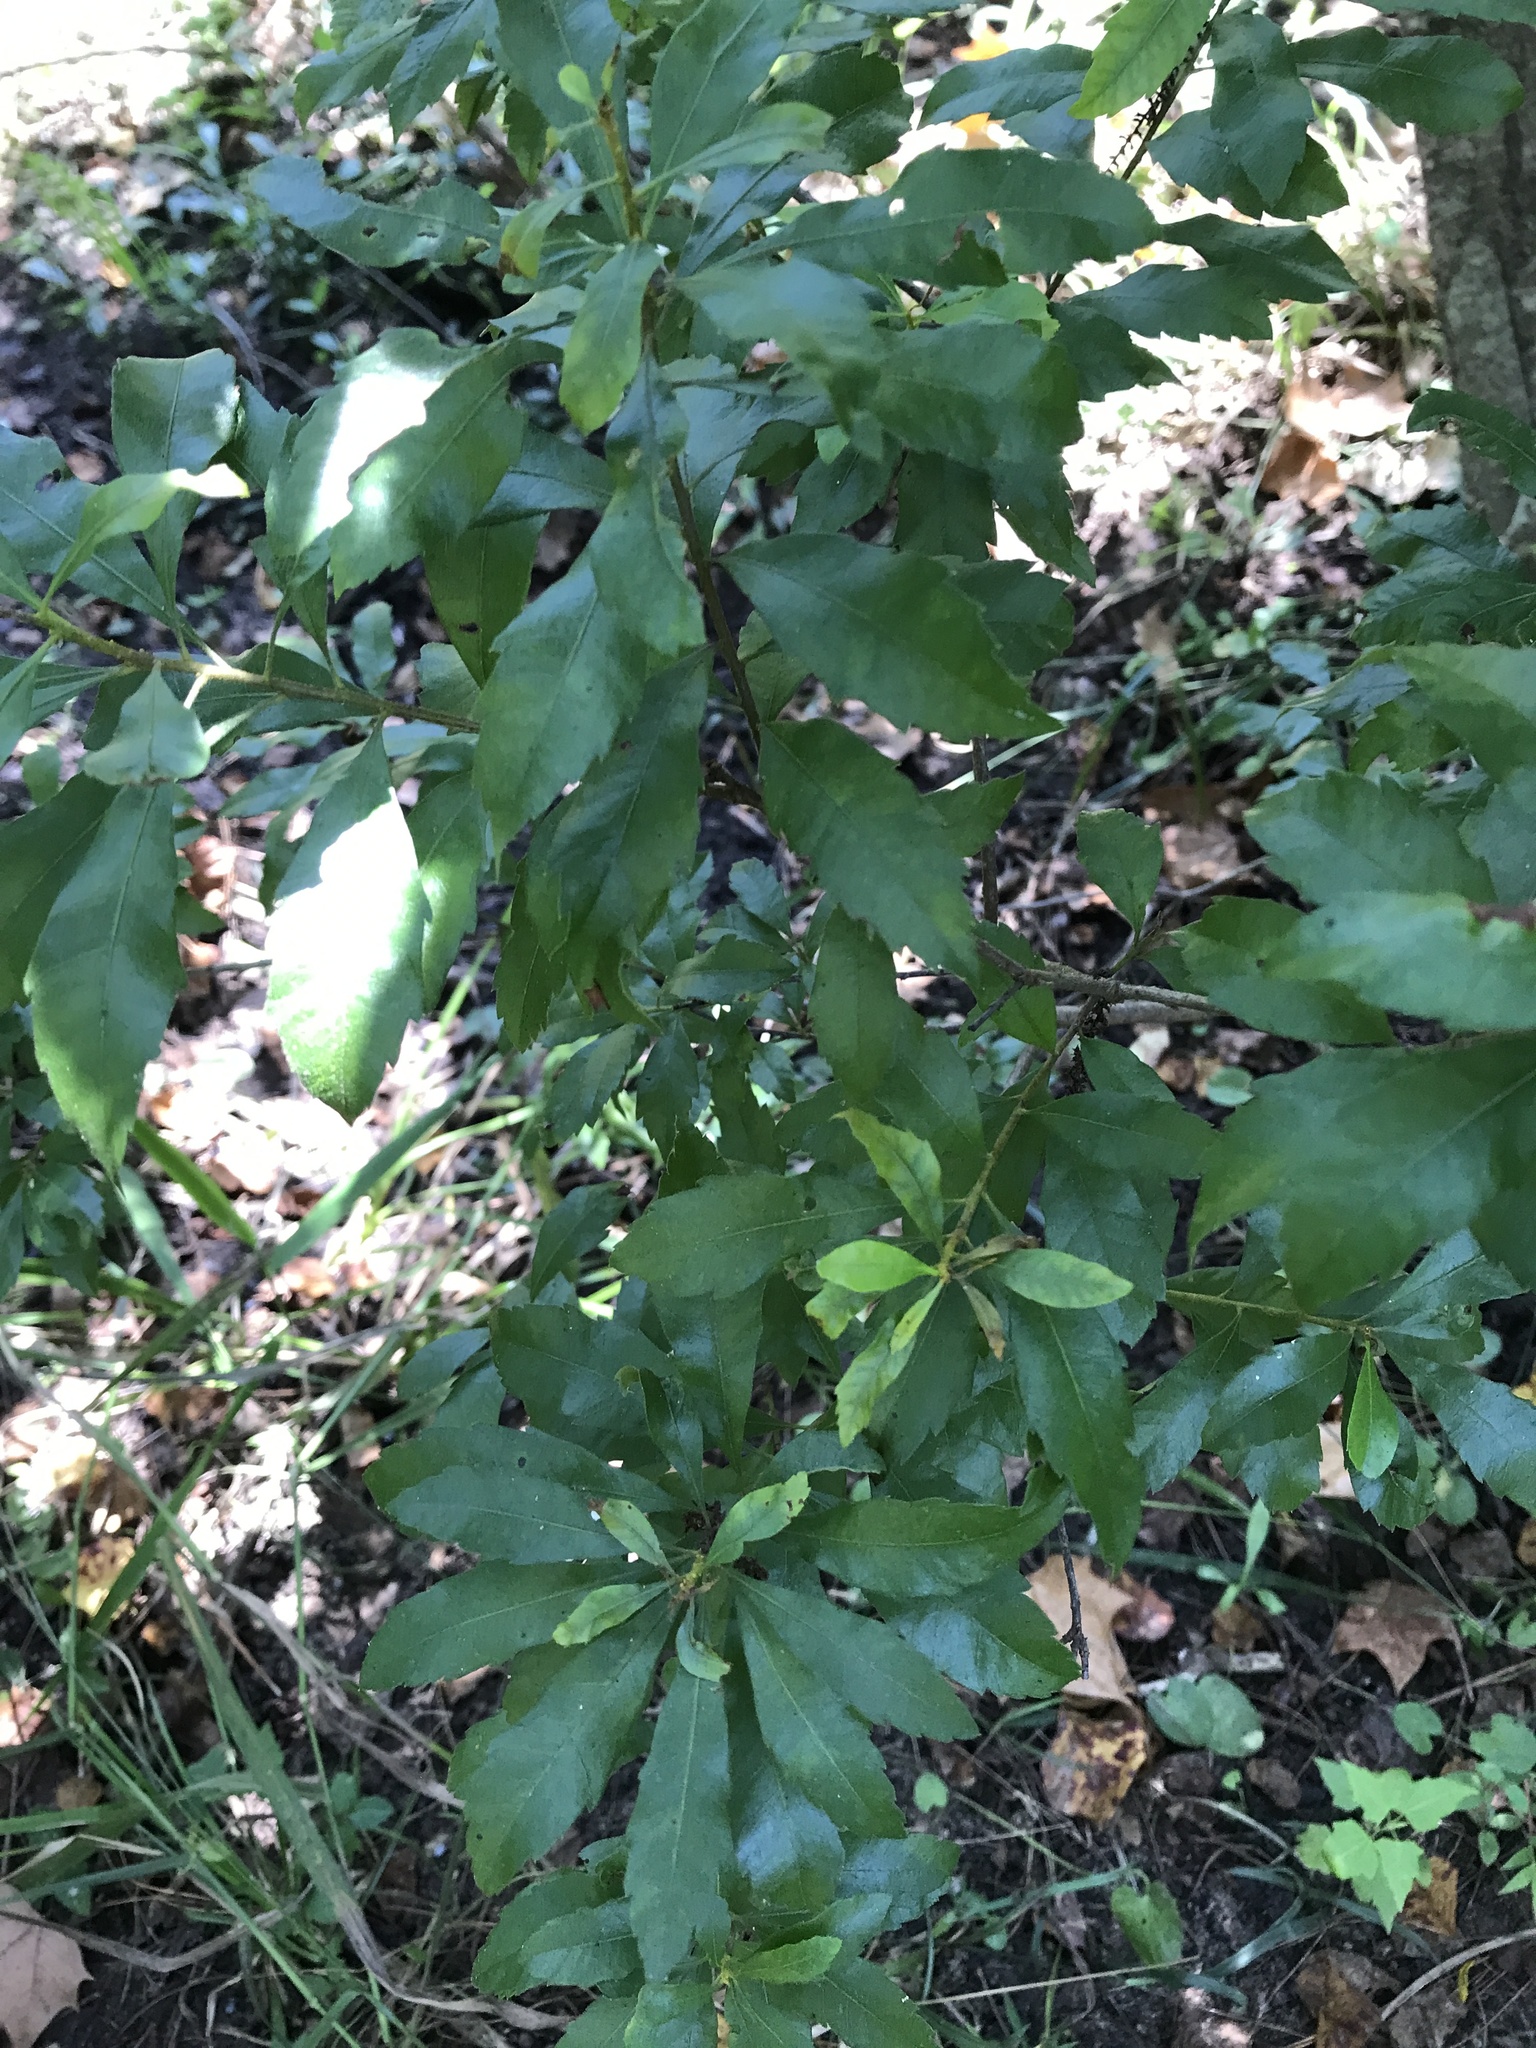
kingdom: Plantae
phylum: Tracheophyta
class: Magnoliopsida
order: Fagales
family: Myricaceae
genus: Morella
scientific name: Morella cerifera
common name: Wax myrtle
